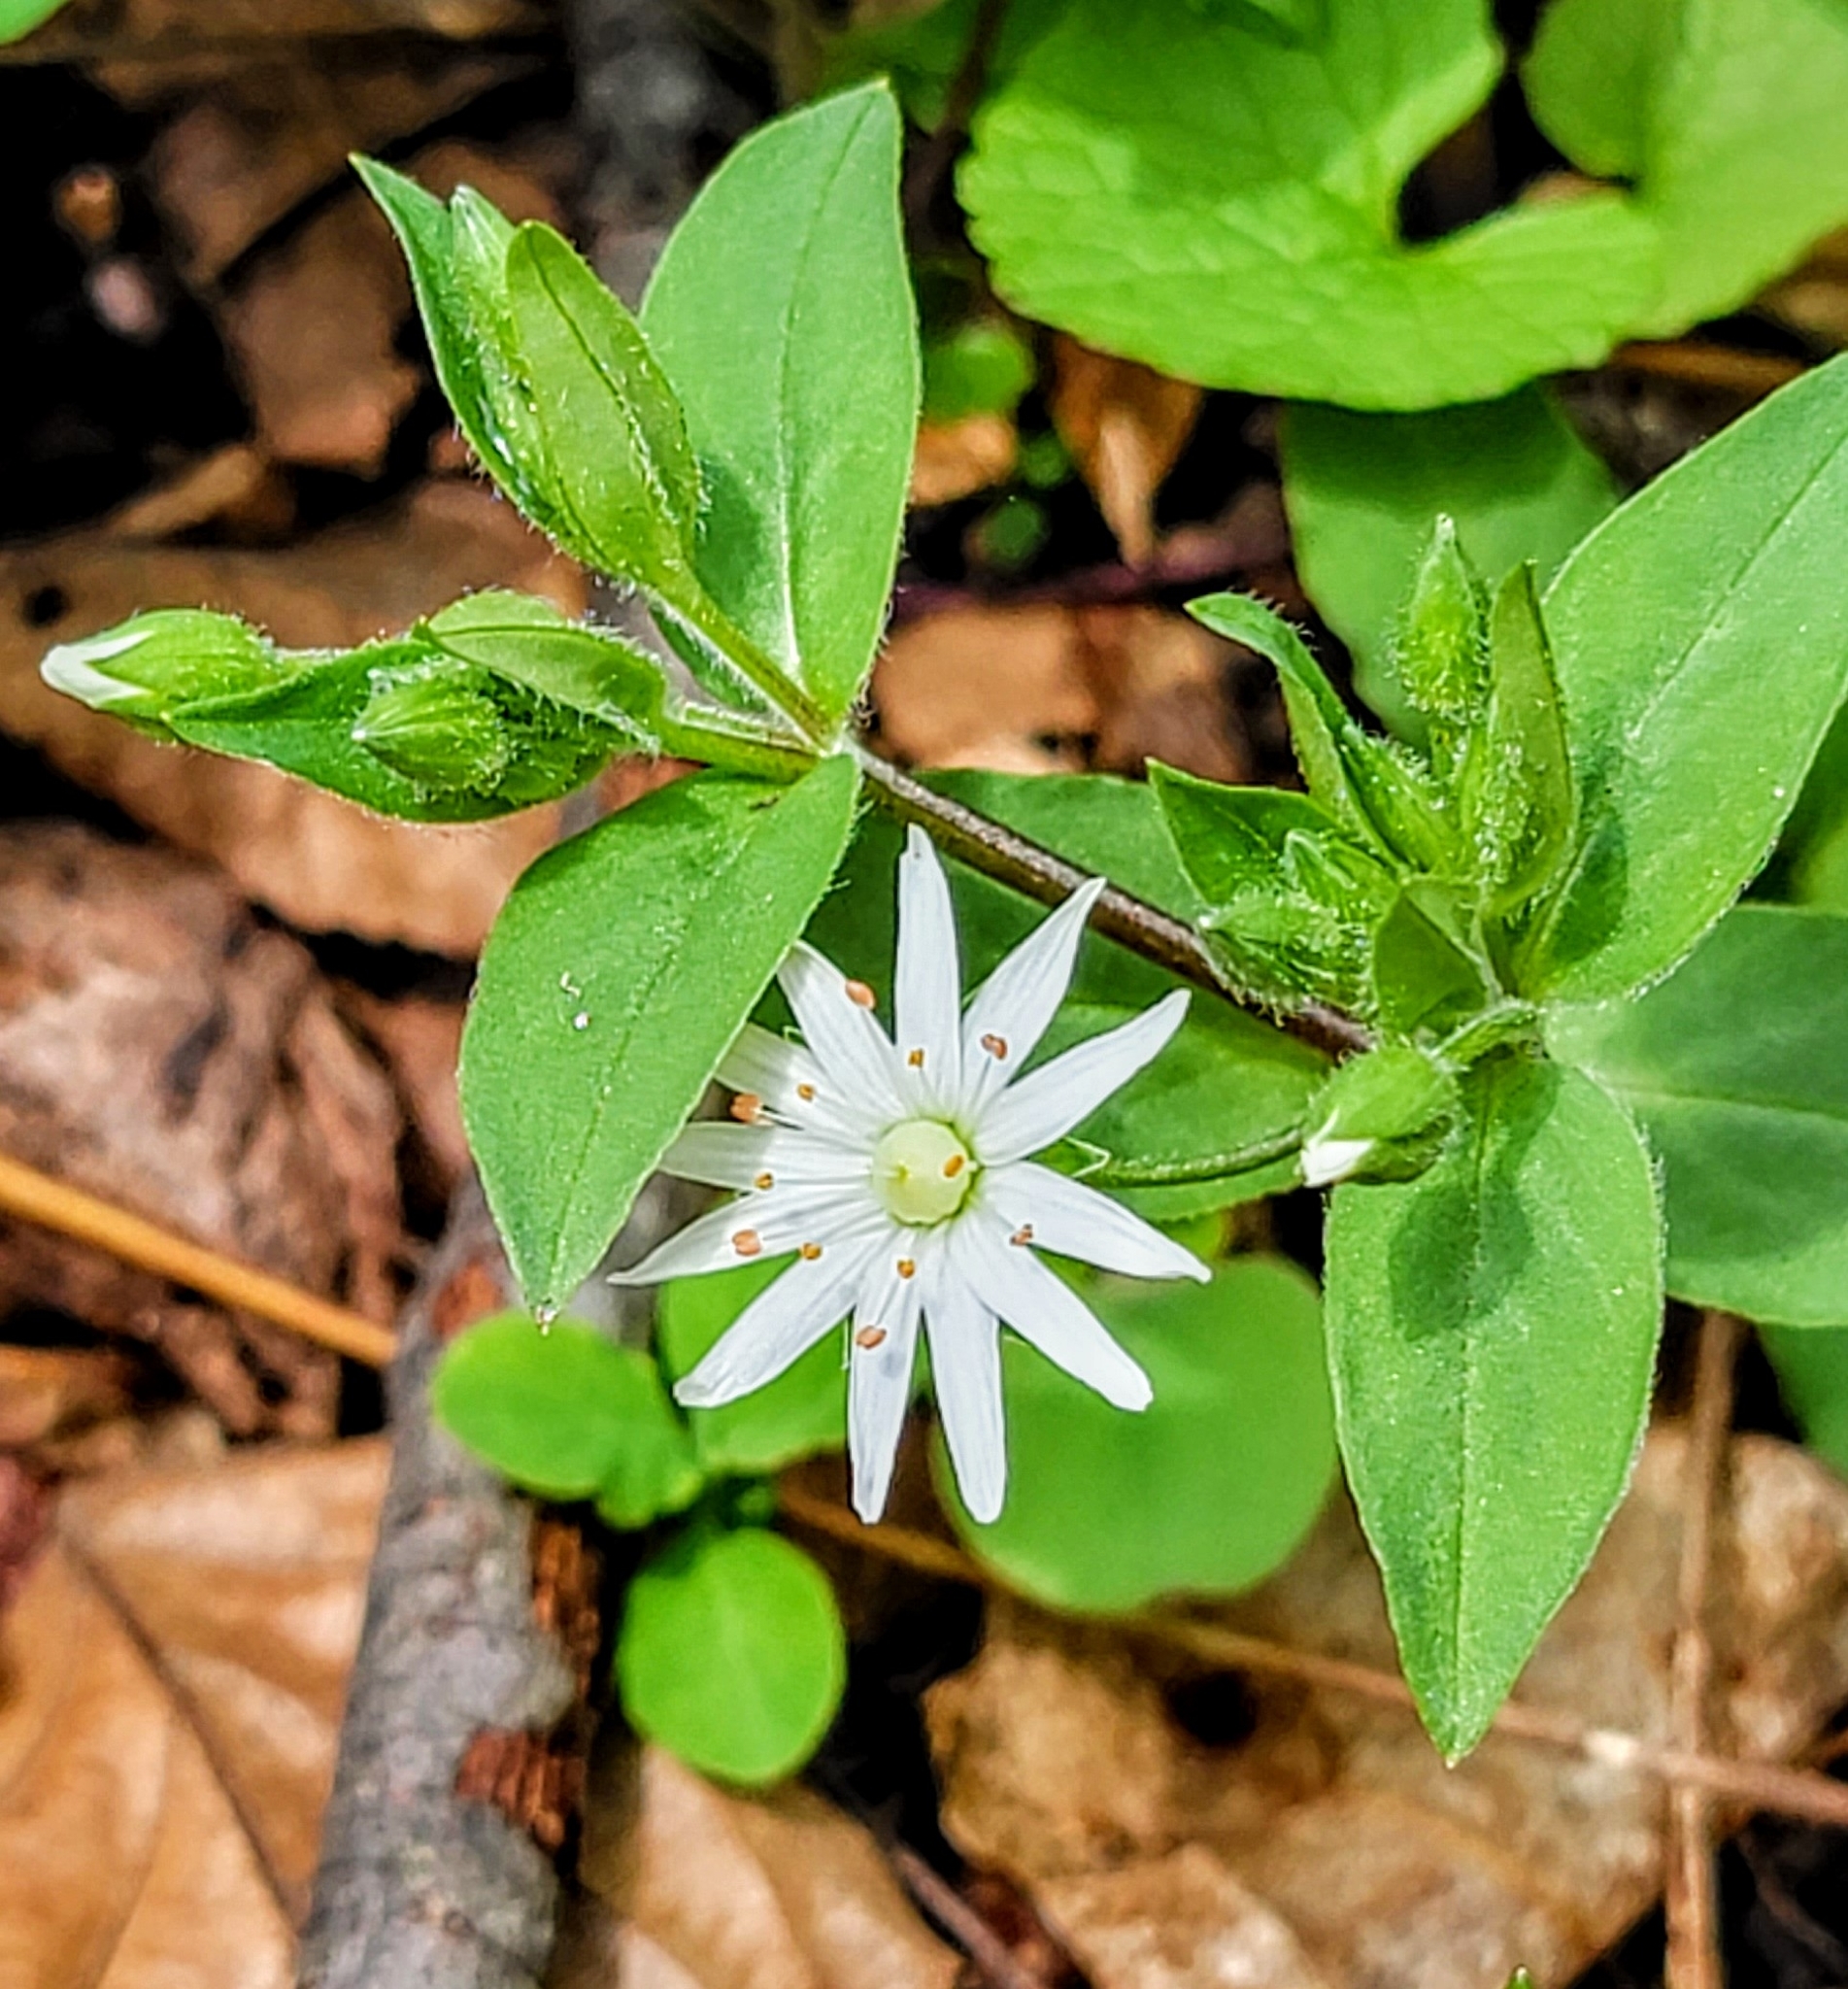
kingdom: Plantae
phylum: Tracheophyta
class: Magnoliopsida
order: Caryophyllales
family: Caryophyllaceae
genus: Stellaria
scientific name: Stellaria pubera
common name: Star chickweed
